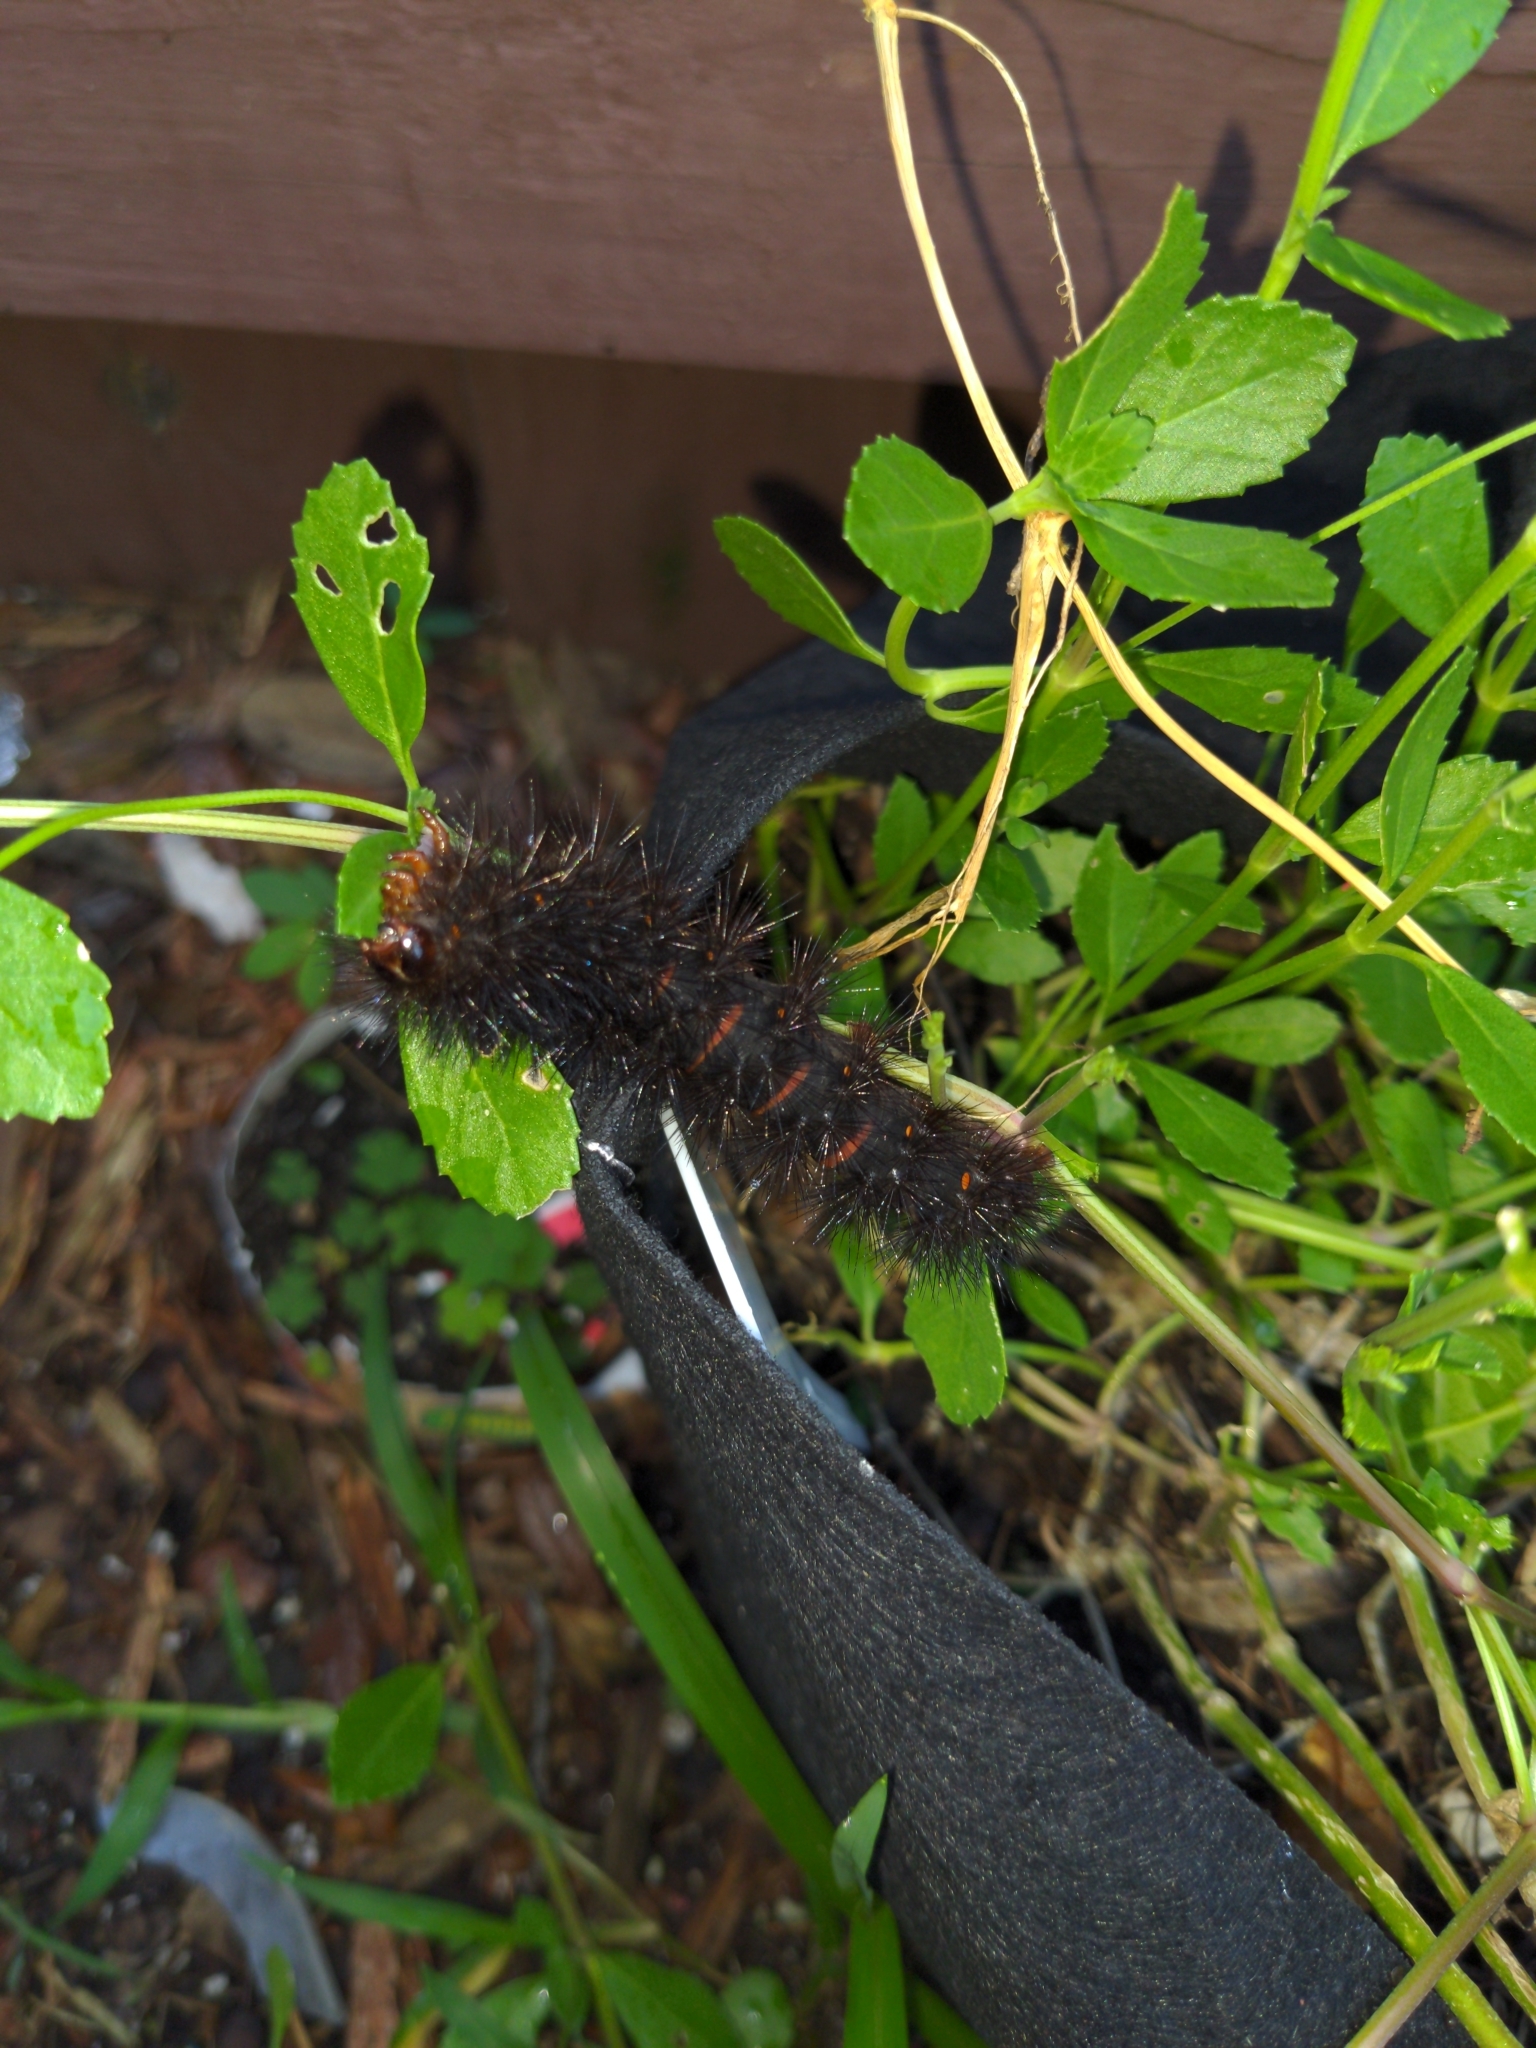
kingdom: Animalia
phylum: Arthropoda
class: Insecta
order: Lepidoptera
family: Erebidae
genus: Hypercompe
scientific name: Hypercompe scribonia
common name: Giant leopard moth
